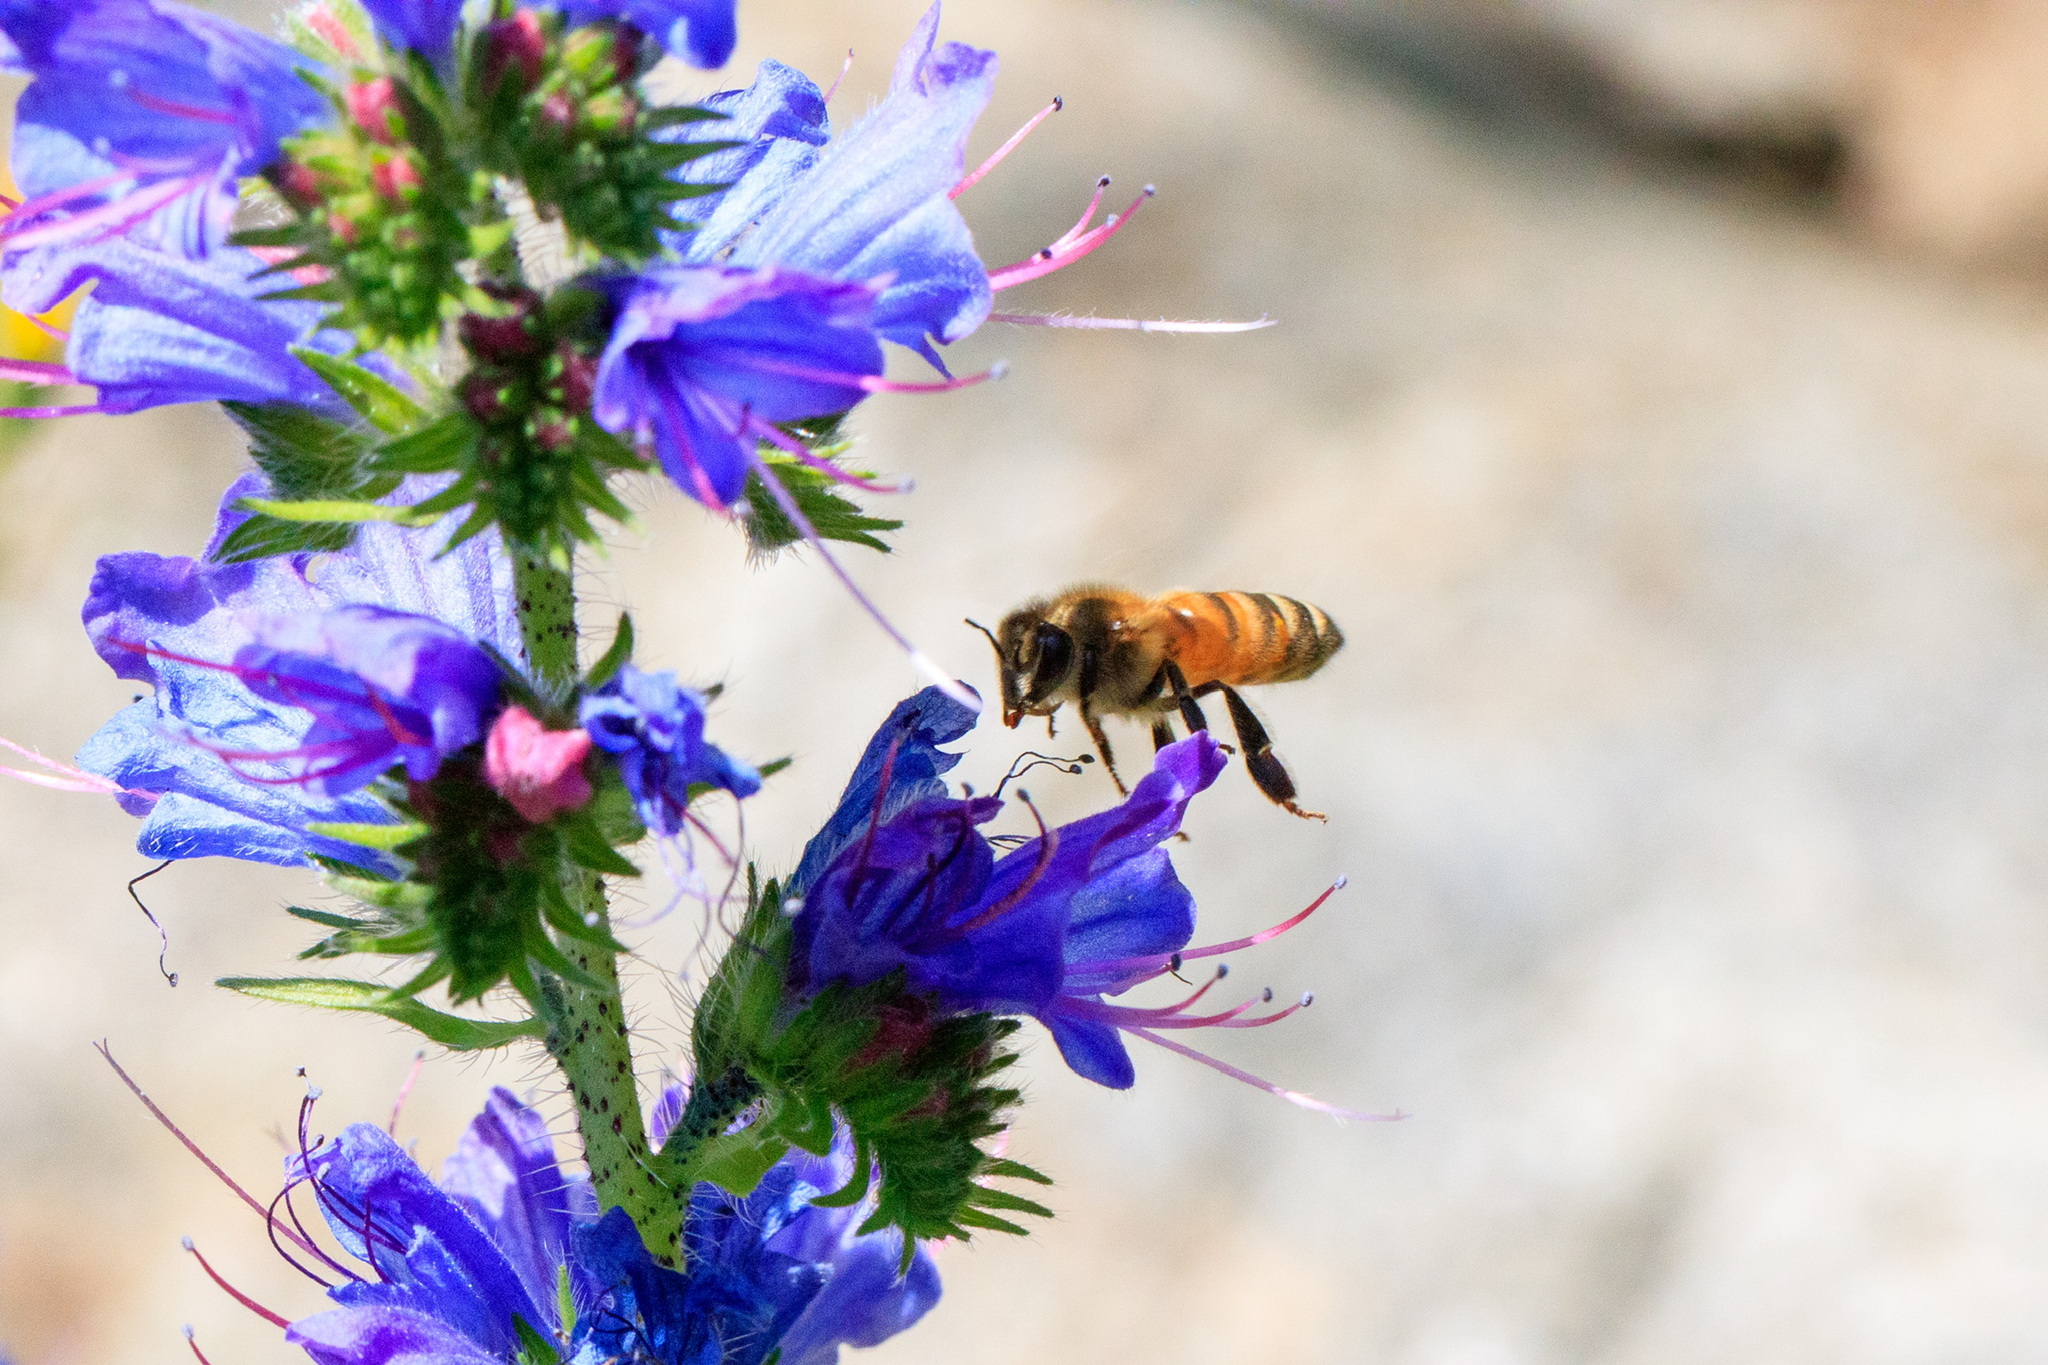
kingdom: Animalia
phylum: Arthropoda
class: Insecta
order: Hymenoptera
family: Apidae
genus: Apis
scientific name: Apis mellifera
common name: Honey bee
